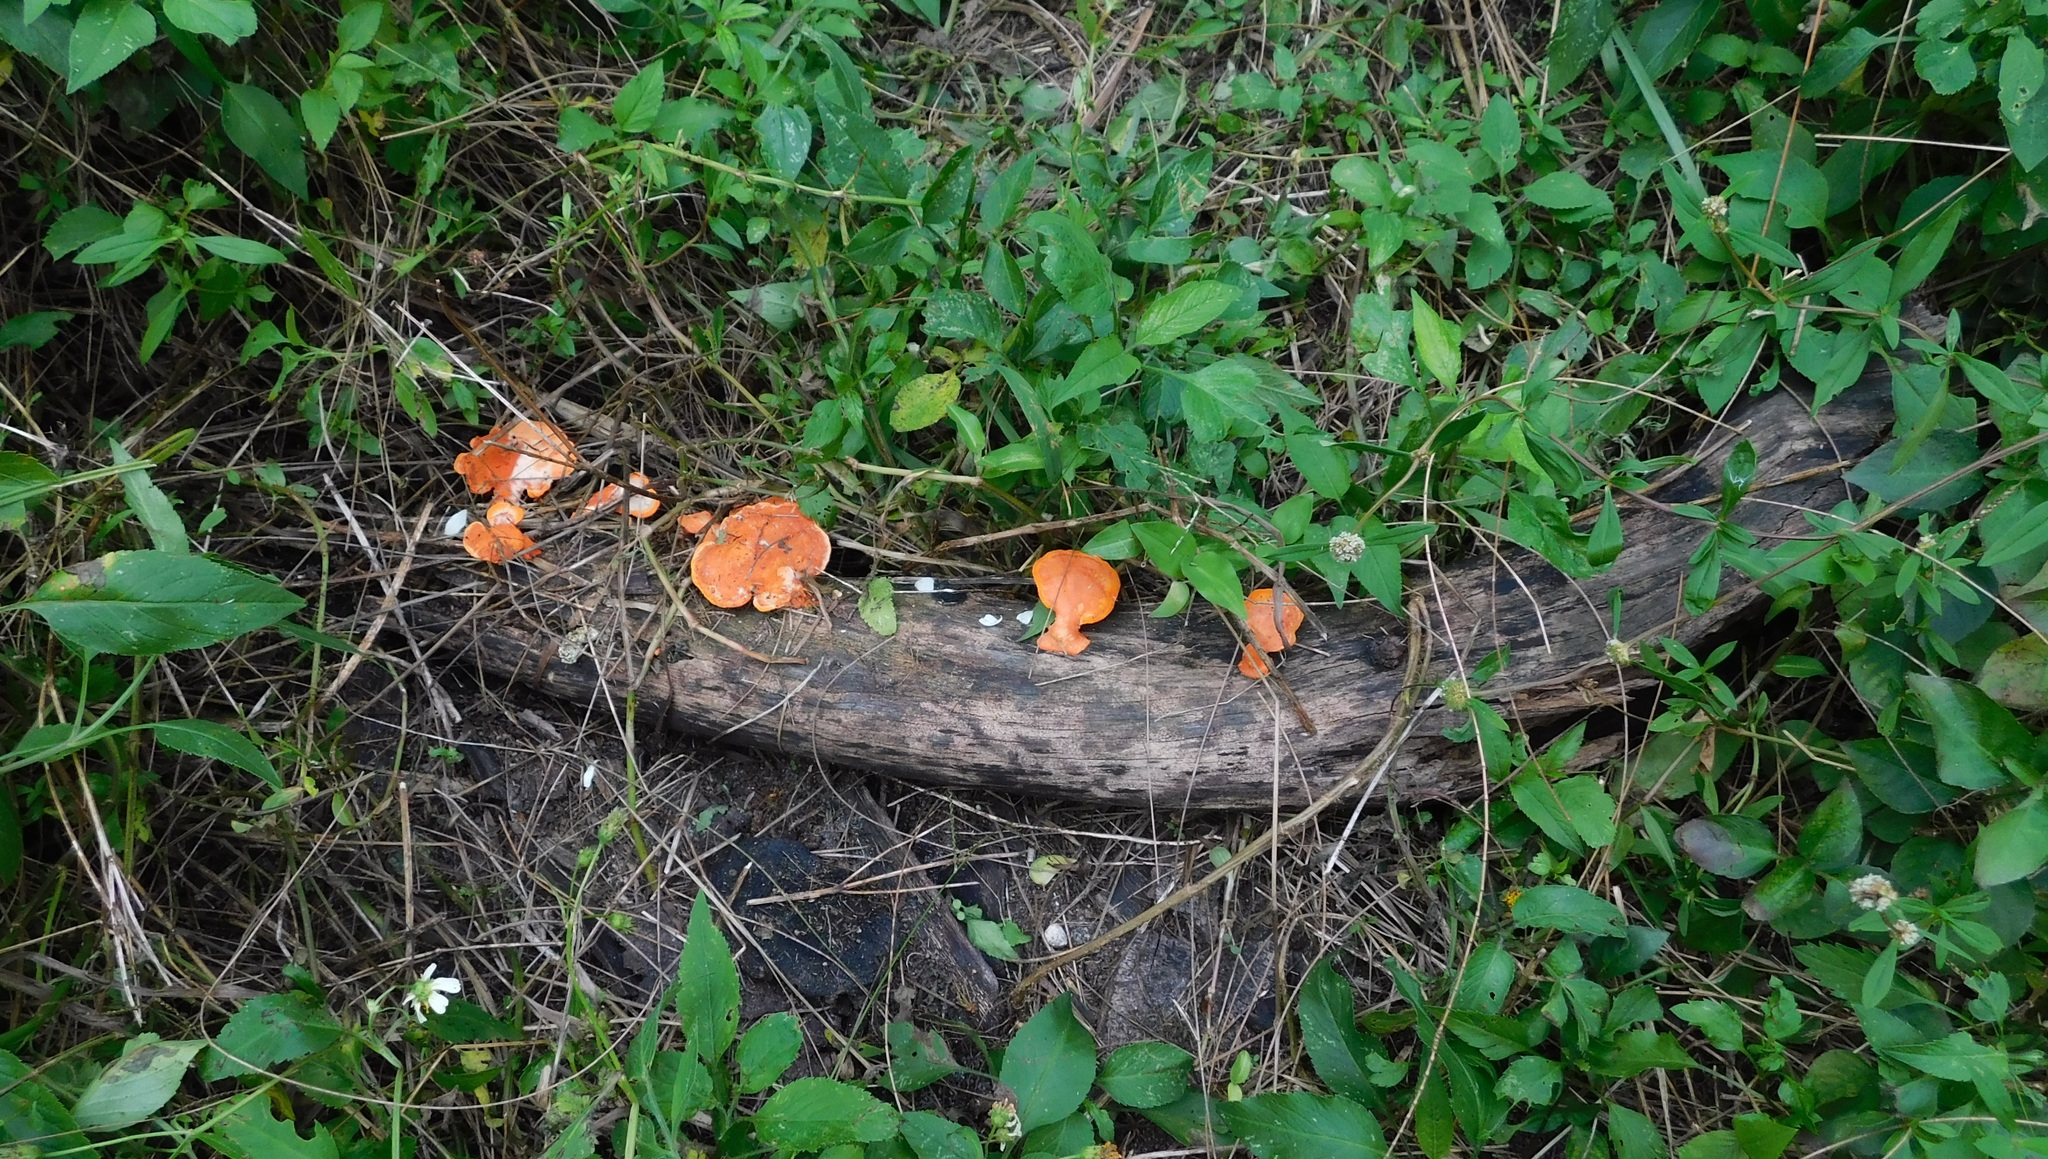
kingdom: Fungi
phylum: Basidiomycota
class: Agaricomycetes
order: Polyporales
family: Polyporaceae
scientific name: Polyporaceae
